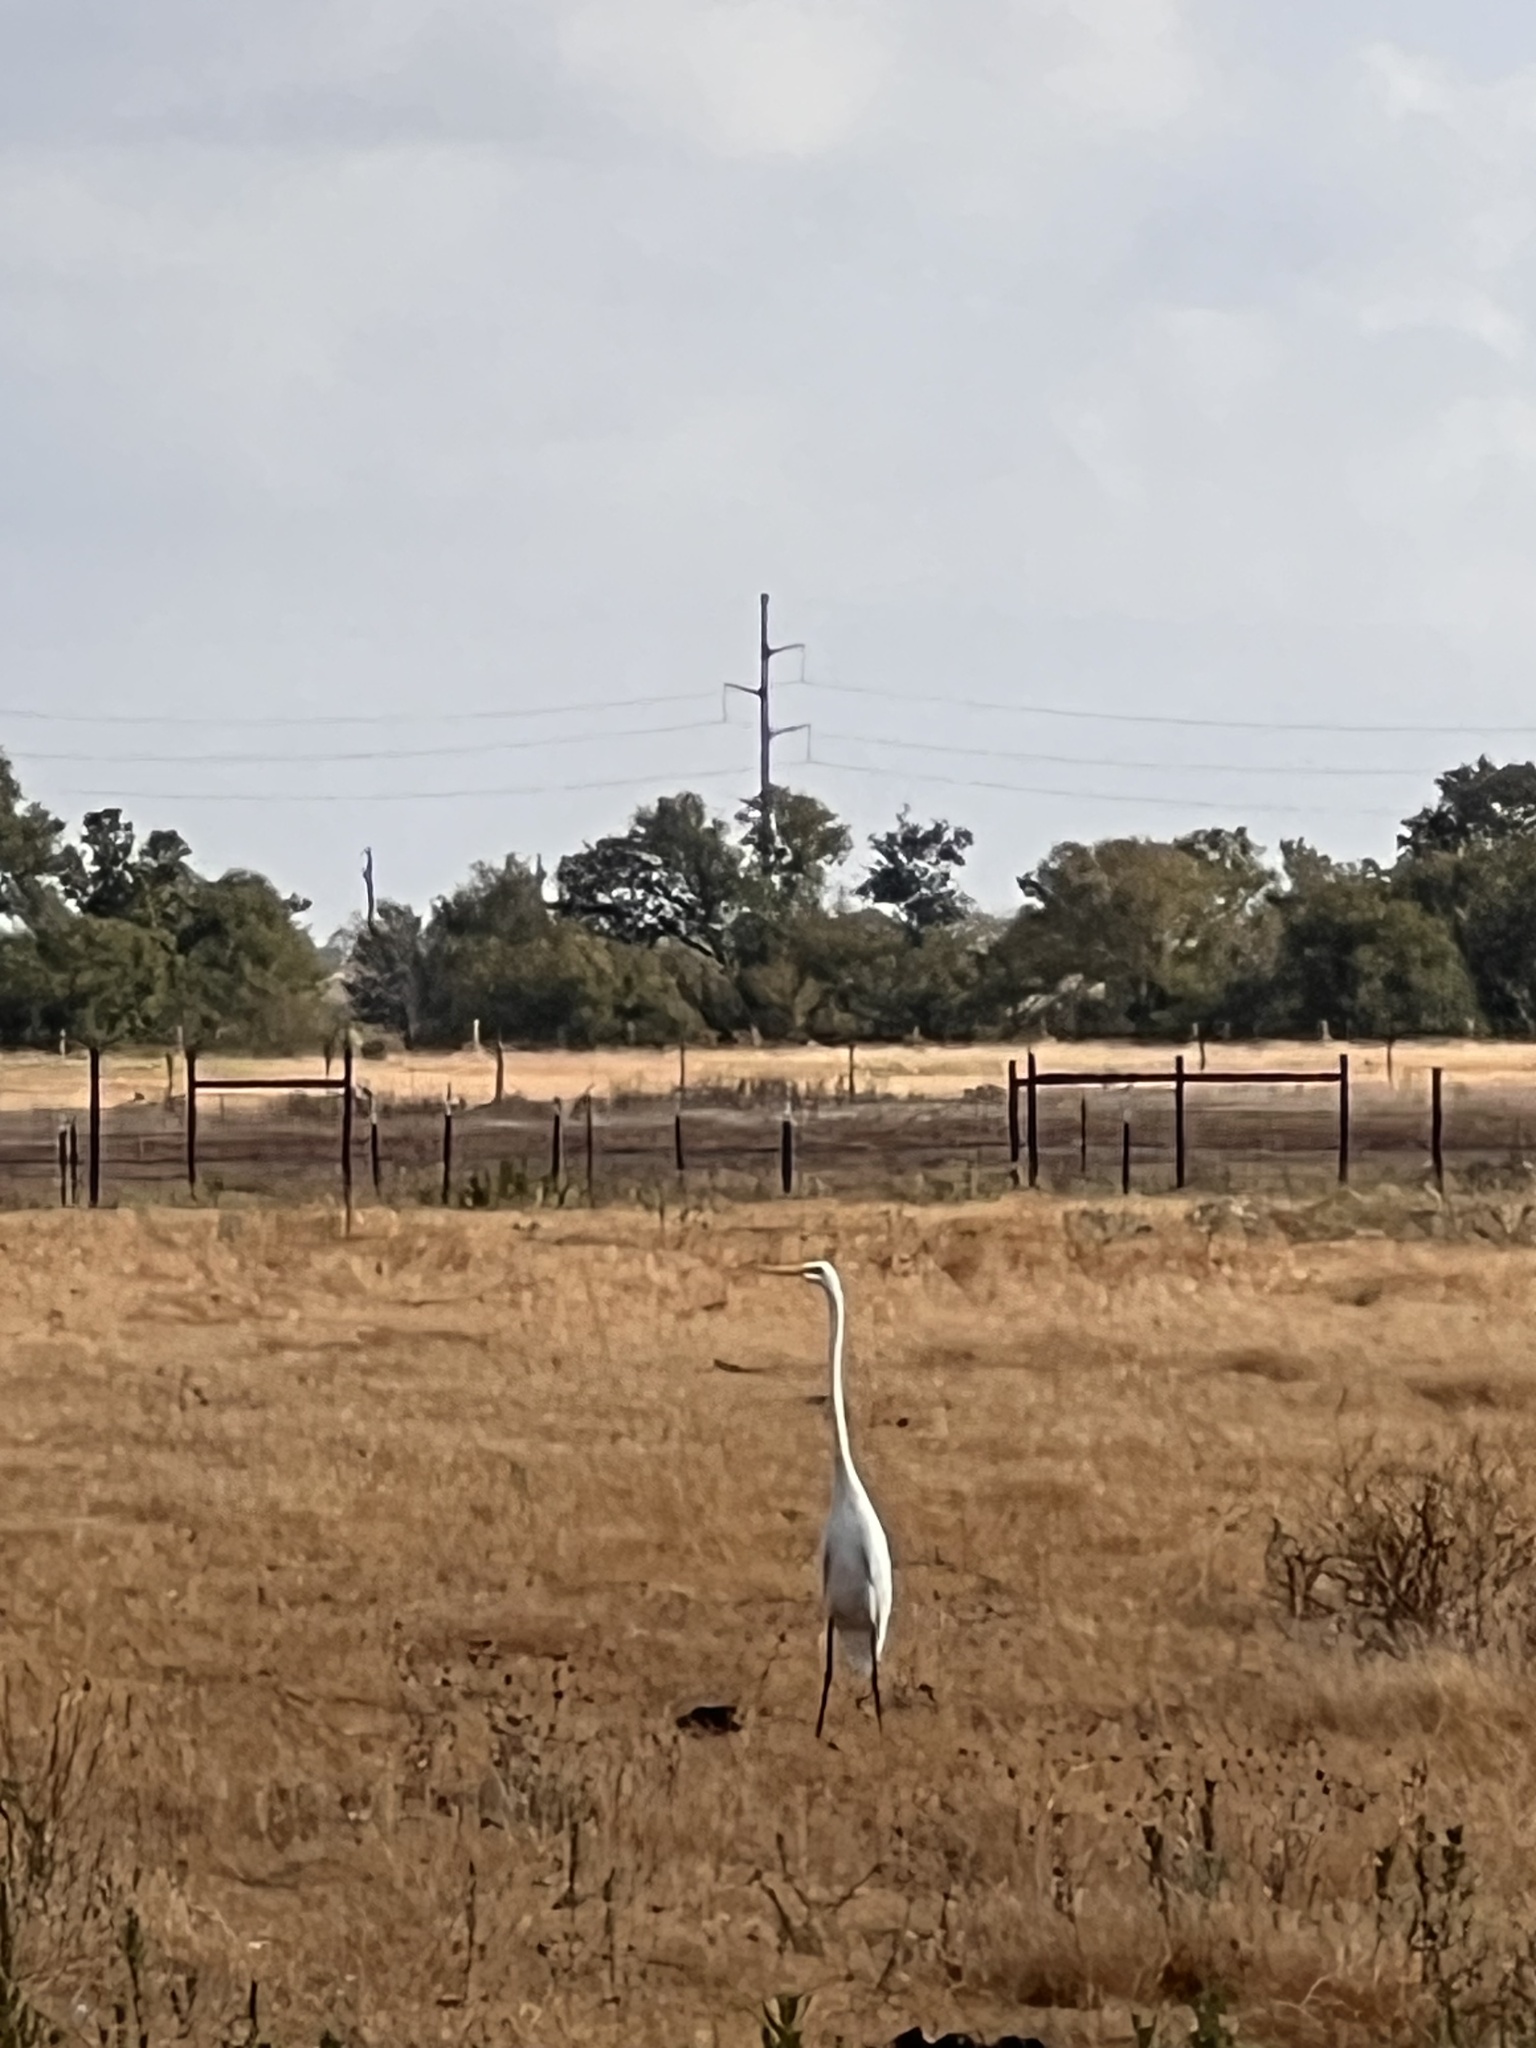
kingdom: Animalia
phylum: Chordata
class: Aves
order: Pelecaniformes
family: Ardeidae
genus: Ardea
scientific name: Ardea alba
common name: Great egret
